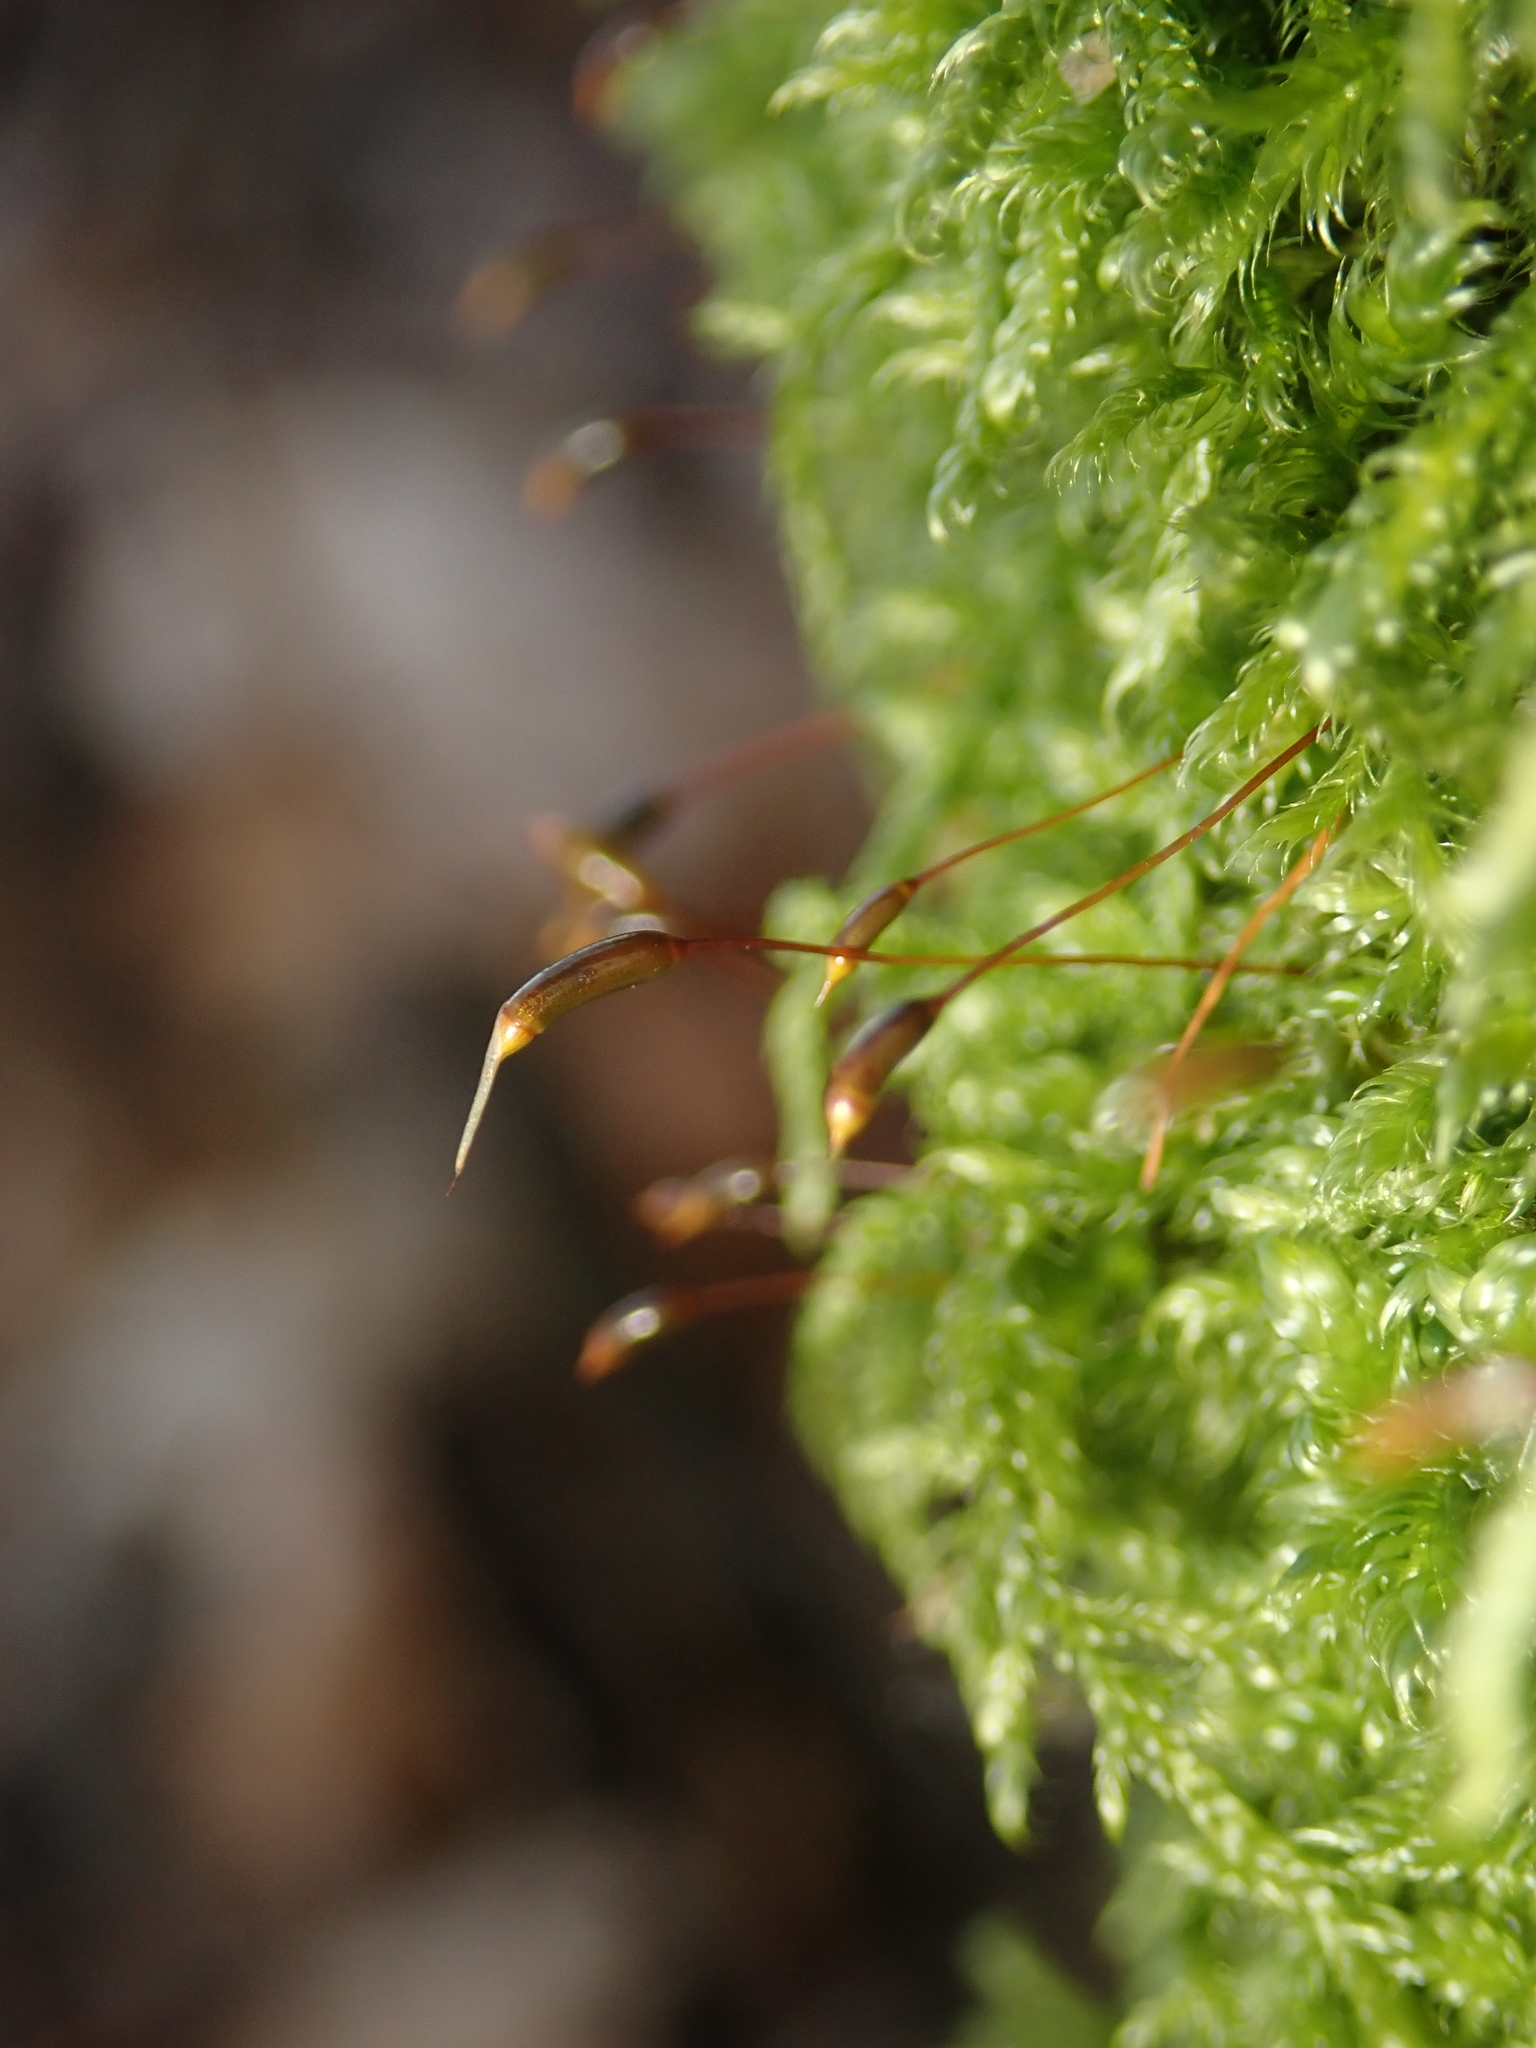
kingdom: Plantae
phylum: Bryophyta
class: Bryopsida
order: Hypnales
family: Hypnaceae
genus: Hypnum
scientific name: Hypnum cupressiforme
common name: Cypress-leaved plait-moss
